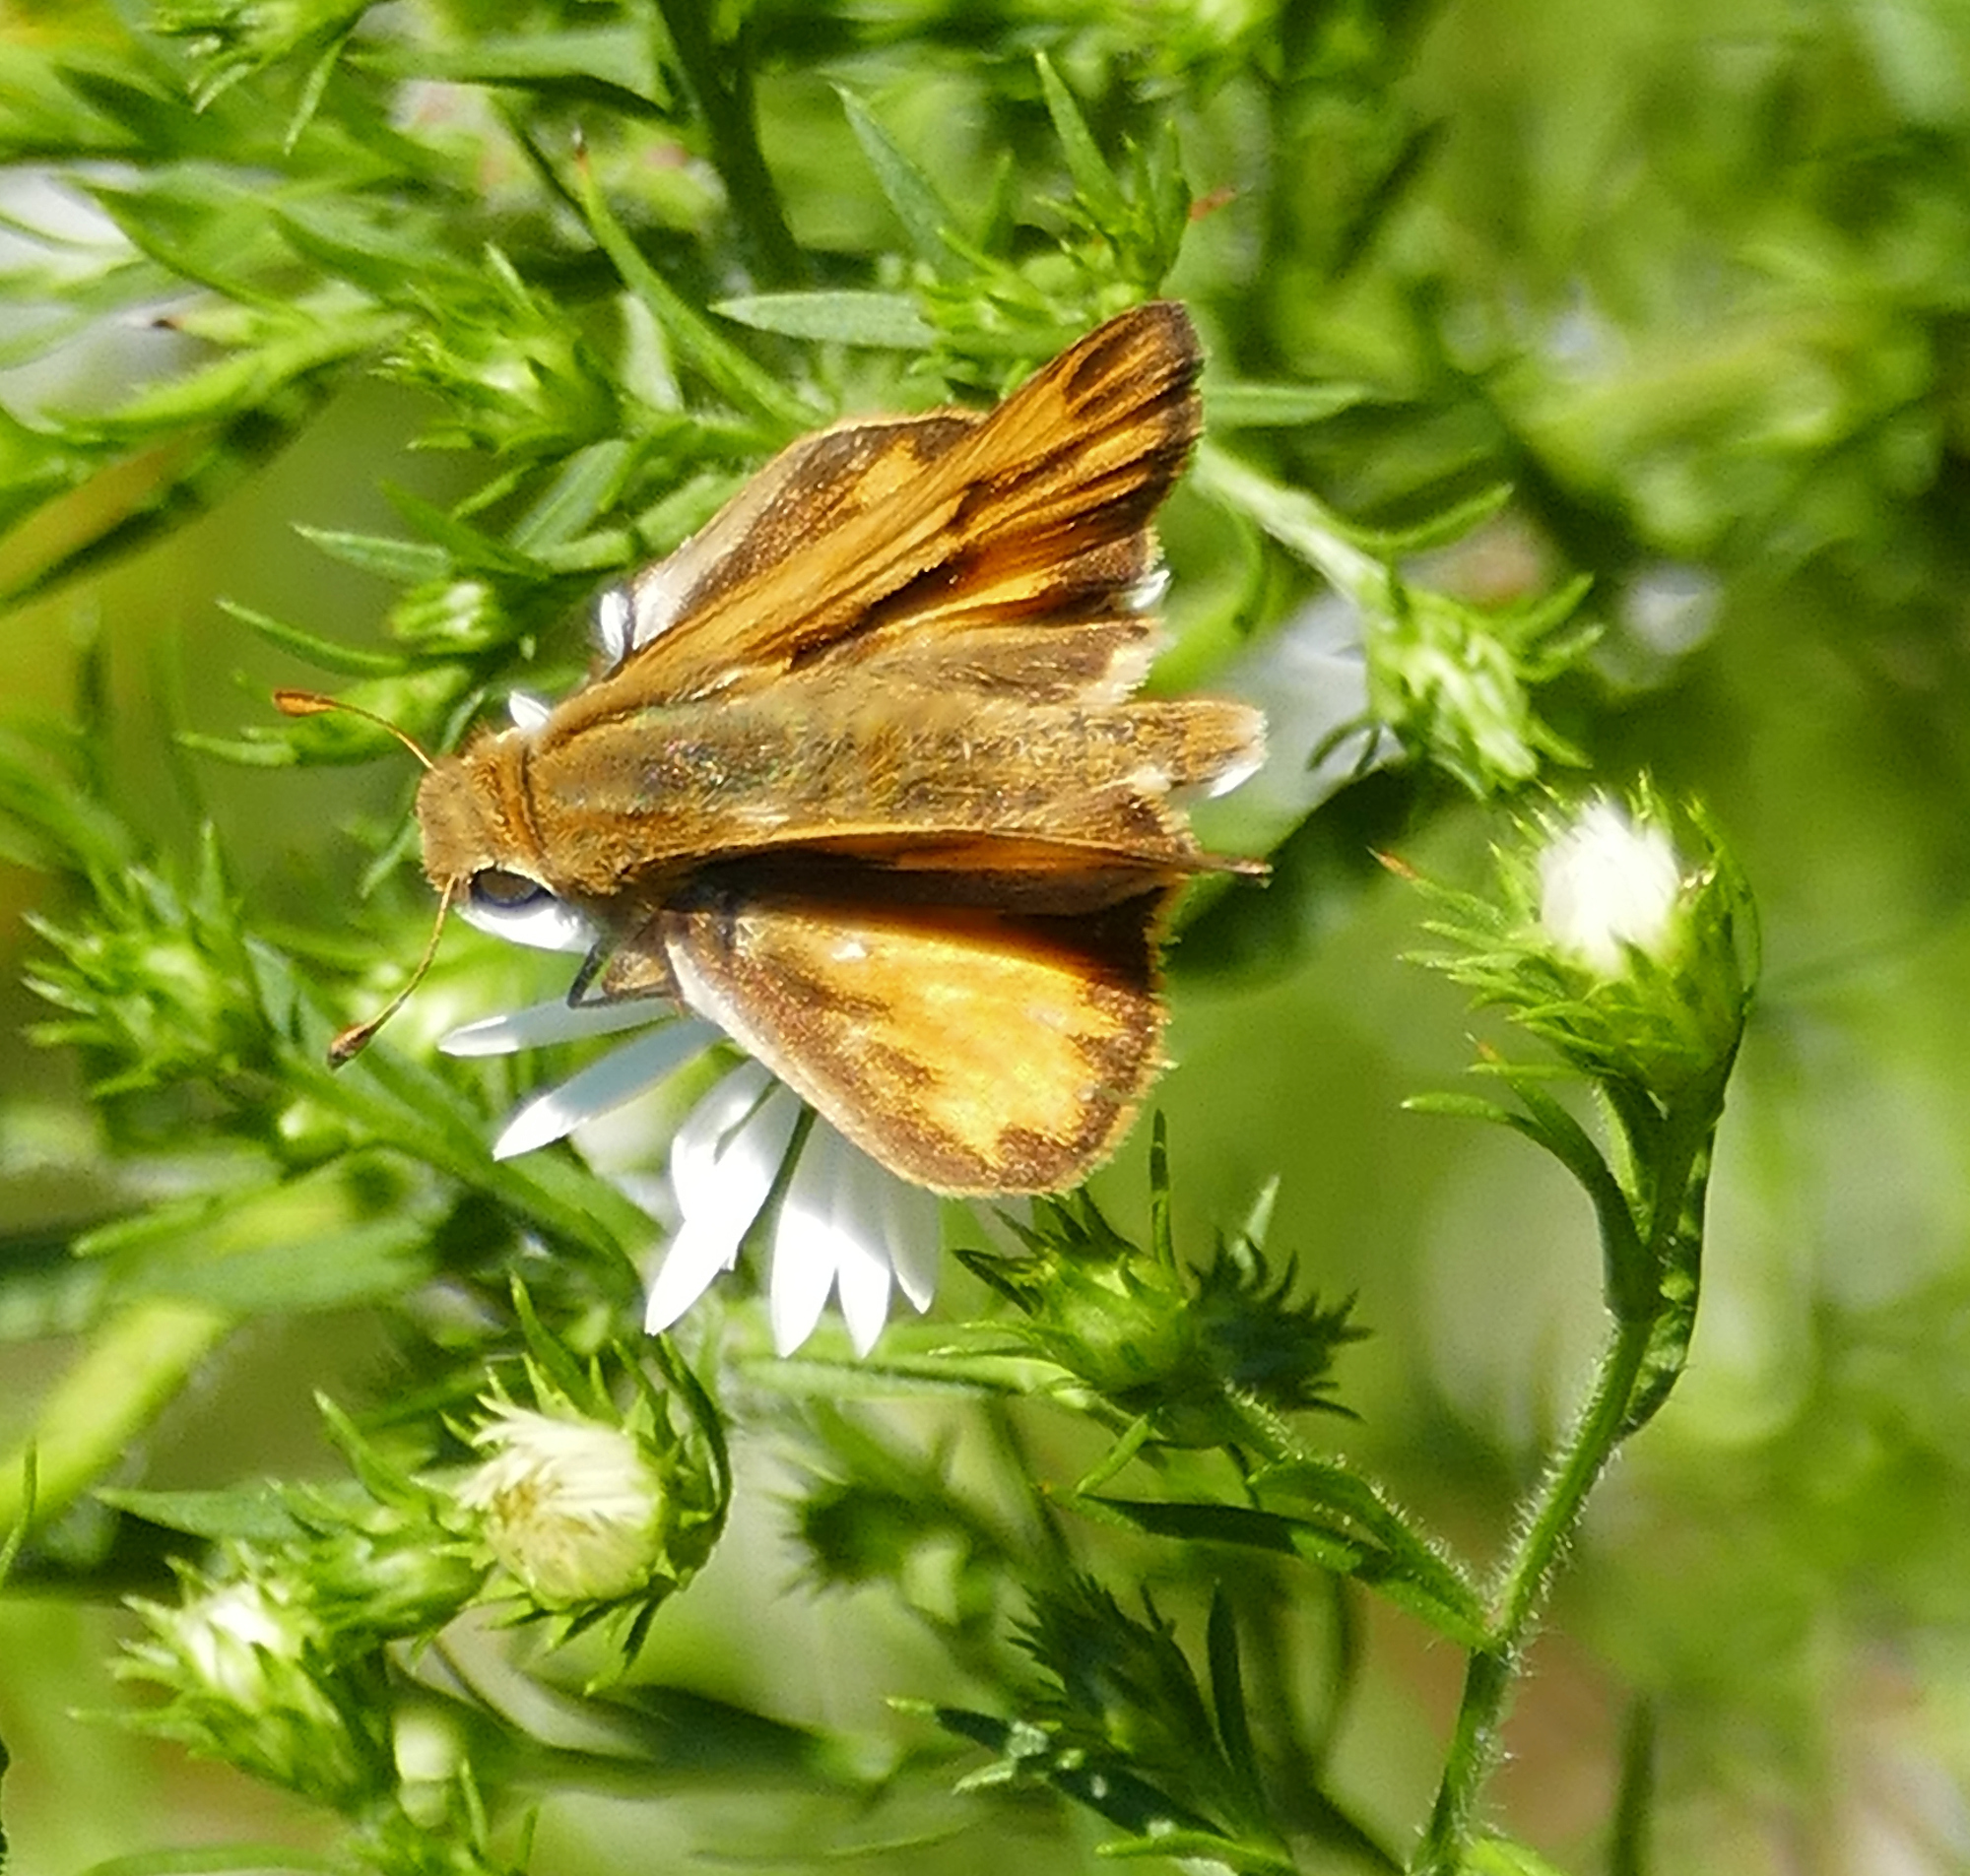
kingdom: Animalia
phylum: Arthropoda
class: Insecta
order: Lepidoptera
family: Hesperiidae
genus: Hylephila
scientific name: Hylephila phyleus
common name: Fiery skipper
